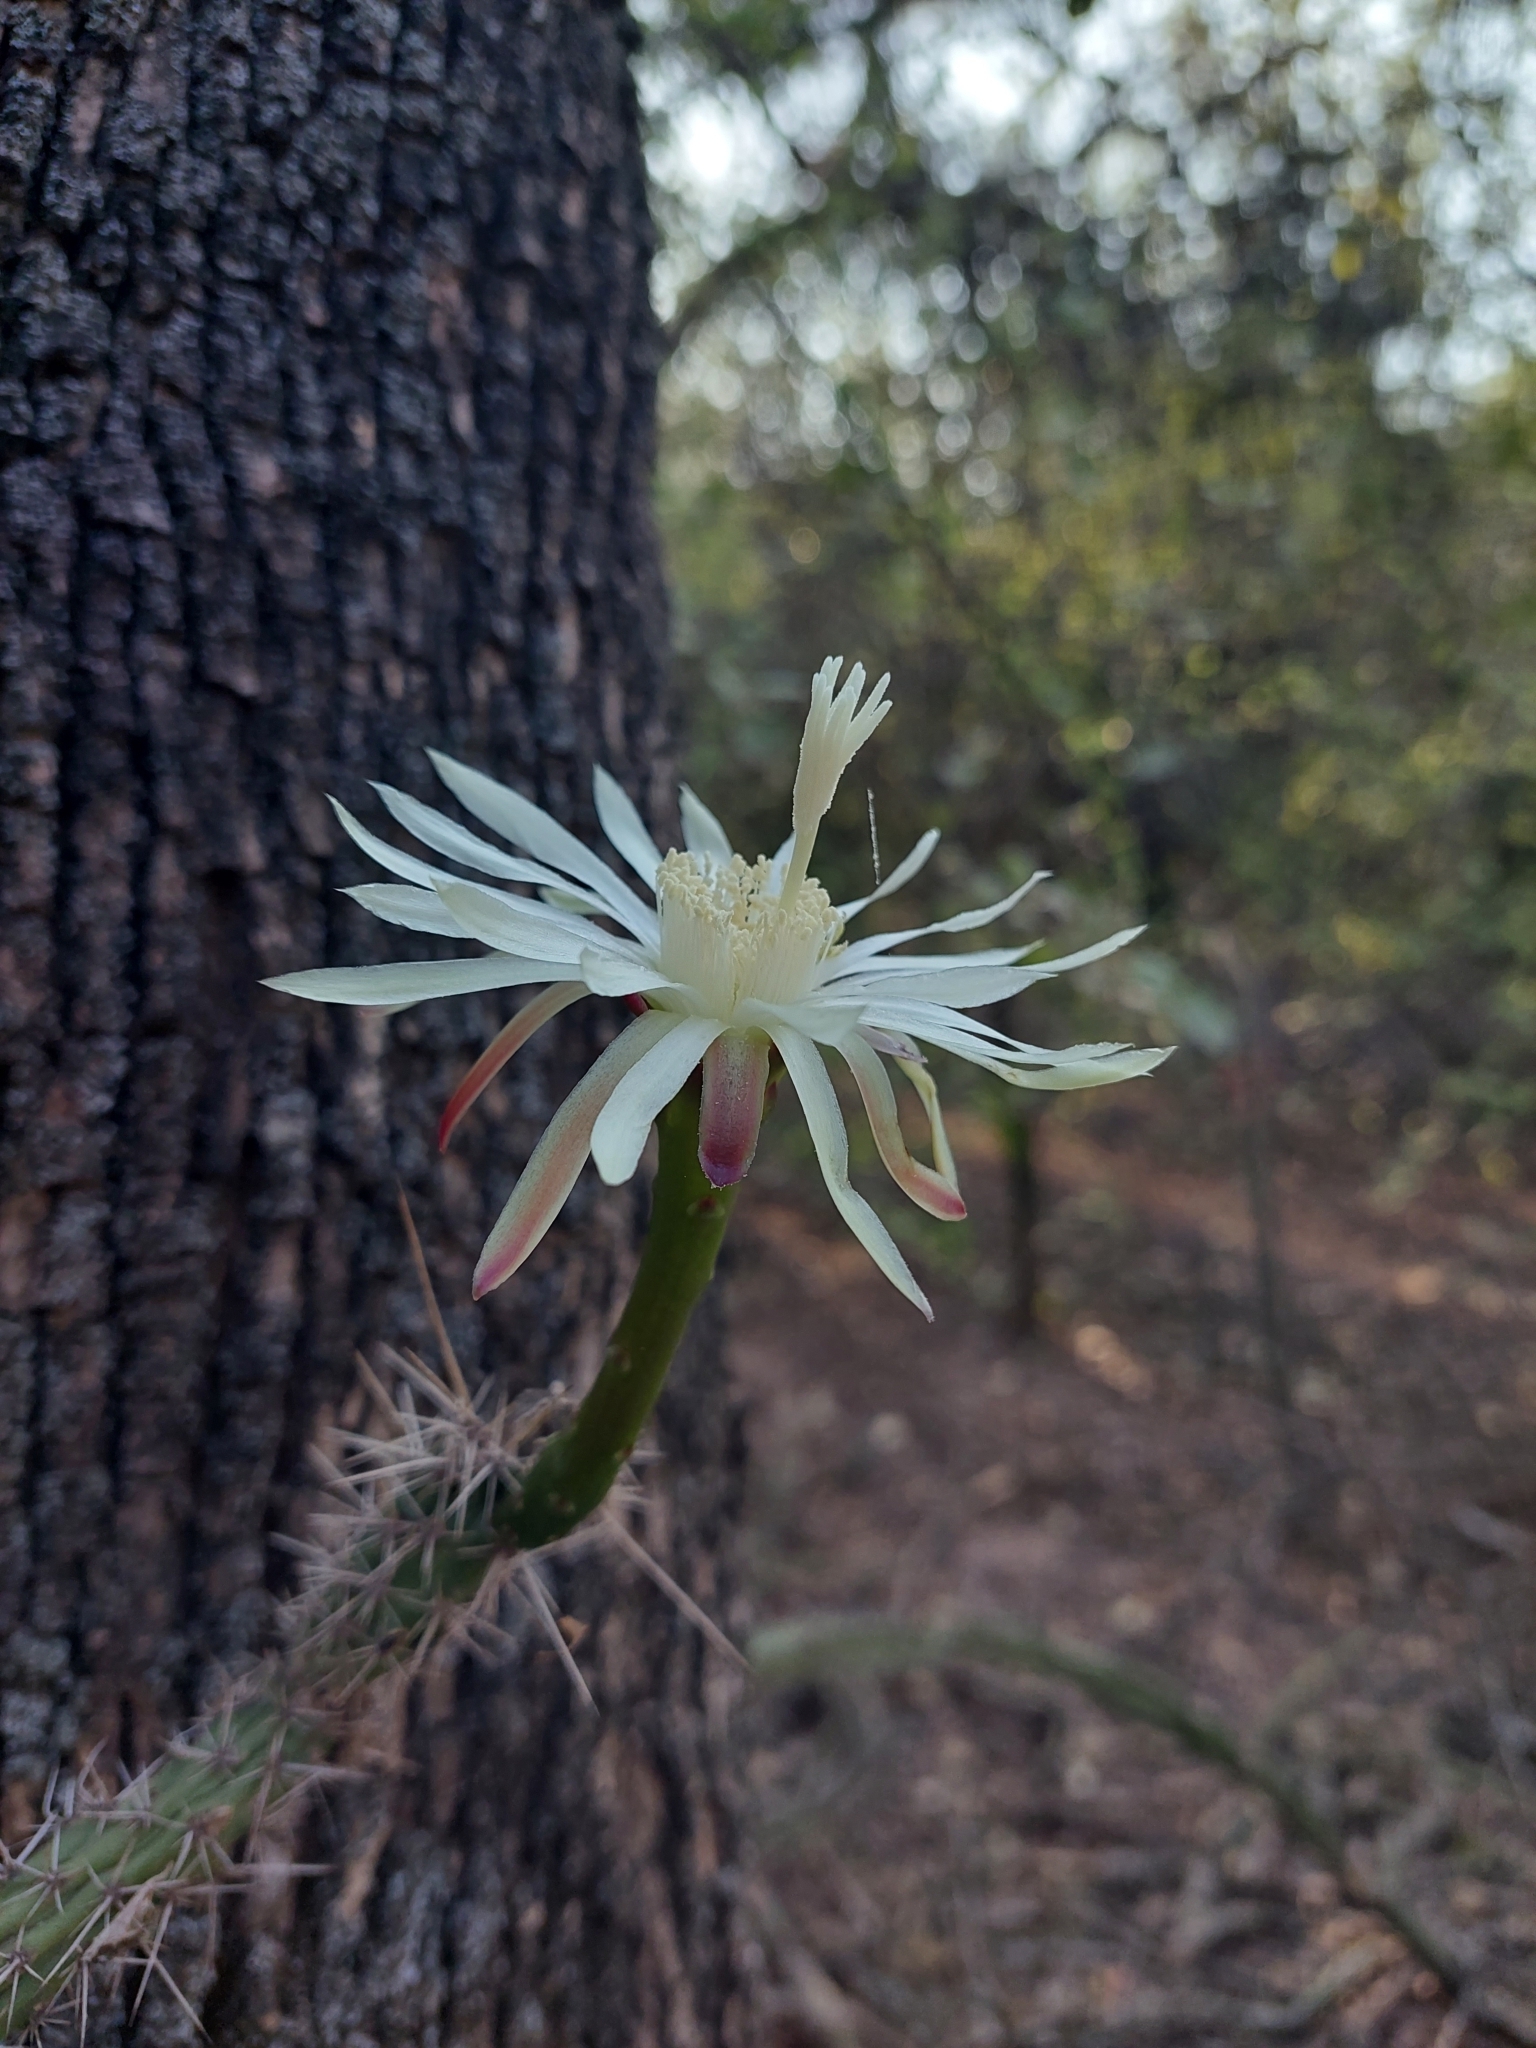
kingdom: Plantae
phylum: Tracheophyta
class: Magnoliopsida
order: Caryophyllales
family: Cactaceae
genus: Praecereus
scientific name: Praecereus saxicola
